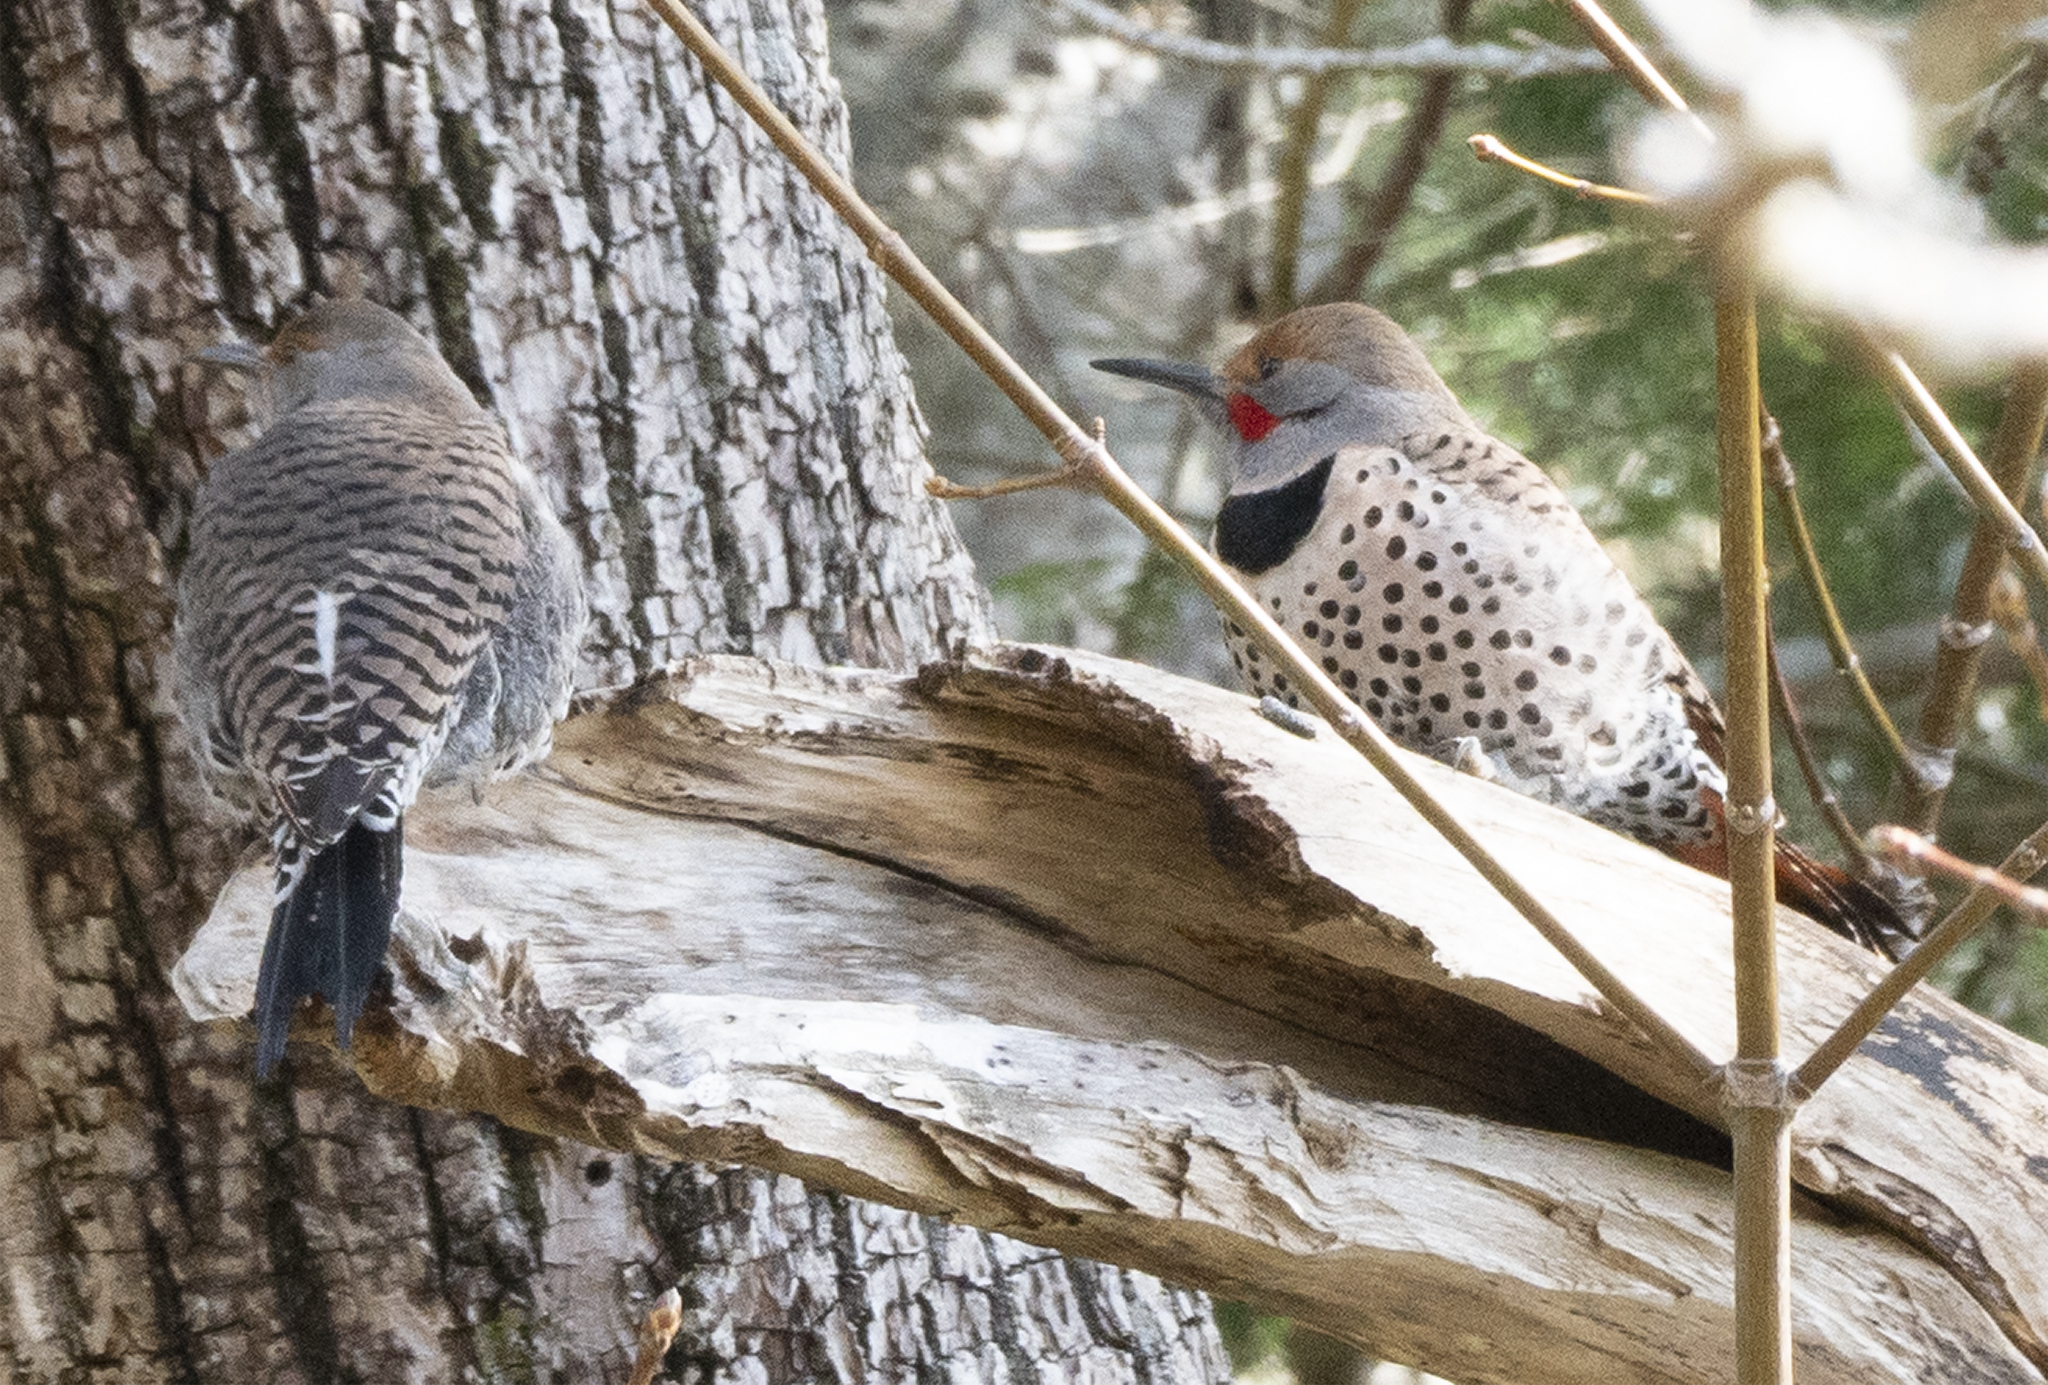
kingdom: Animalia
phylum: Chordata
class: Aves
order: Piciformes
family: Picidae
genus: Colaptes
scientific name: Colaptes auratus
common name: Northern flicker
